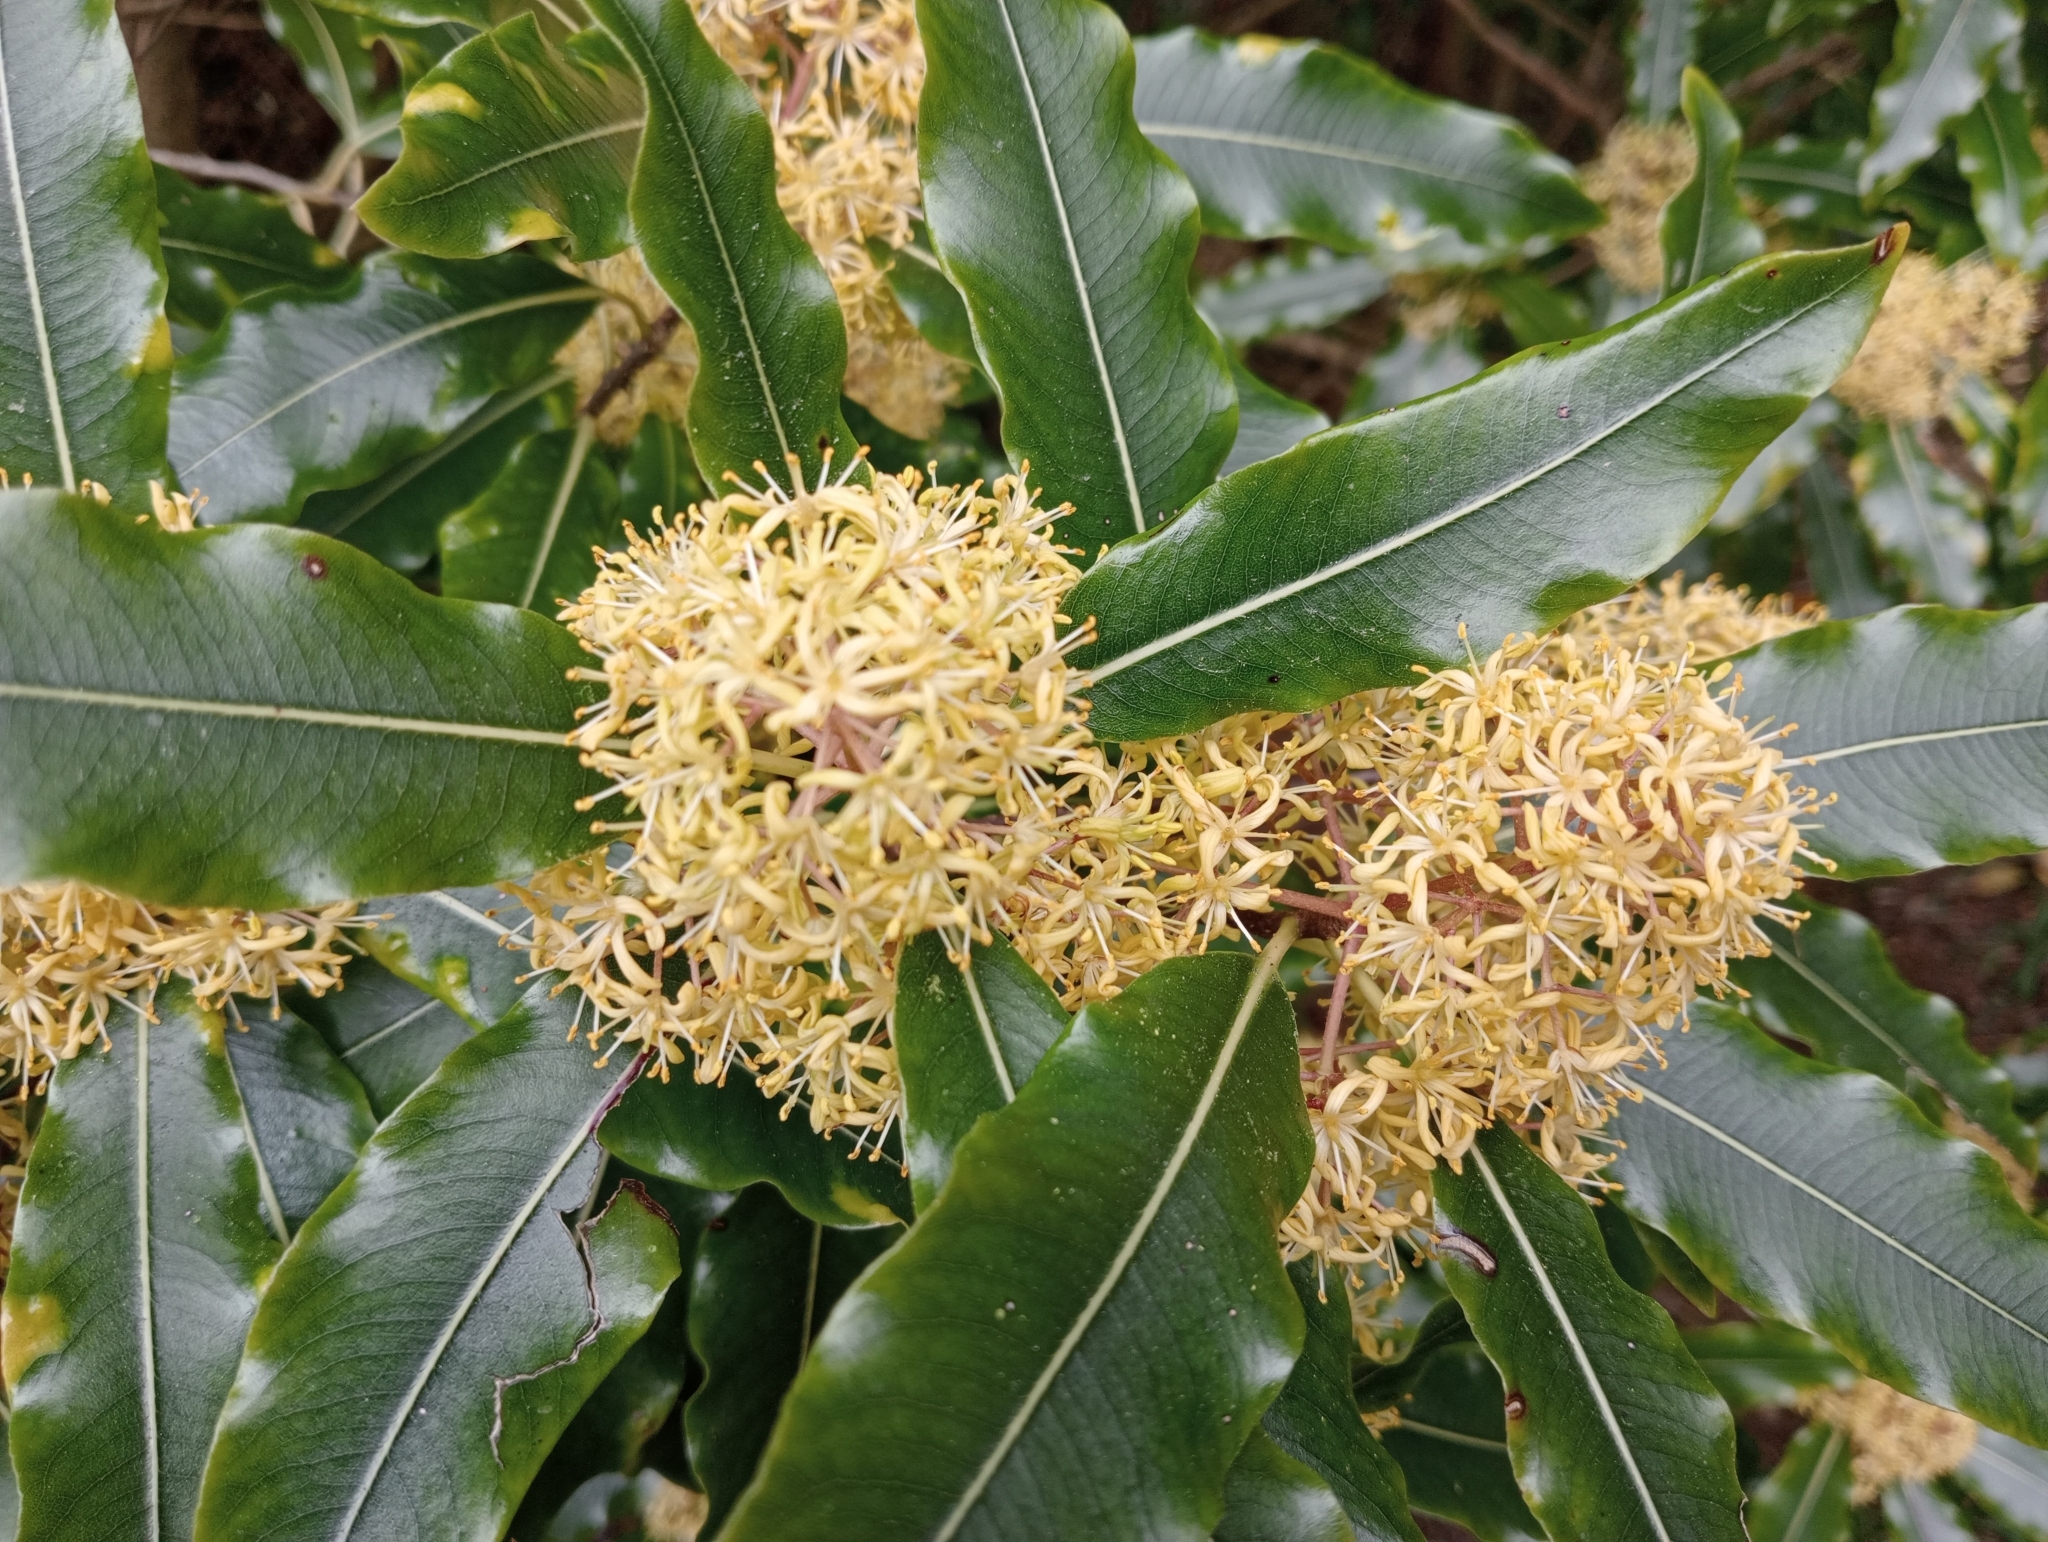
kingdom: Plantae
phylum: Tracheophyta
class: Magnoliopsida
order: Apiales
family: Pittosporaceae
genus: Pittosporum
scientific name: Pittosporum eugenioides
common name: Lemonwood
